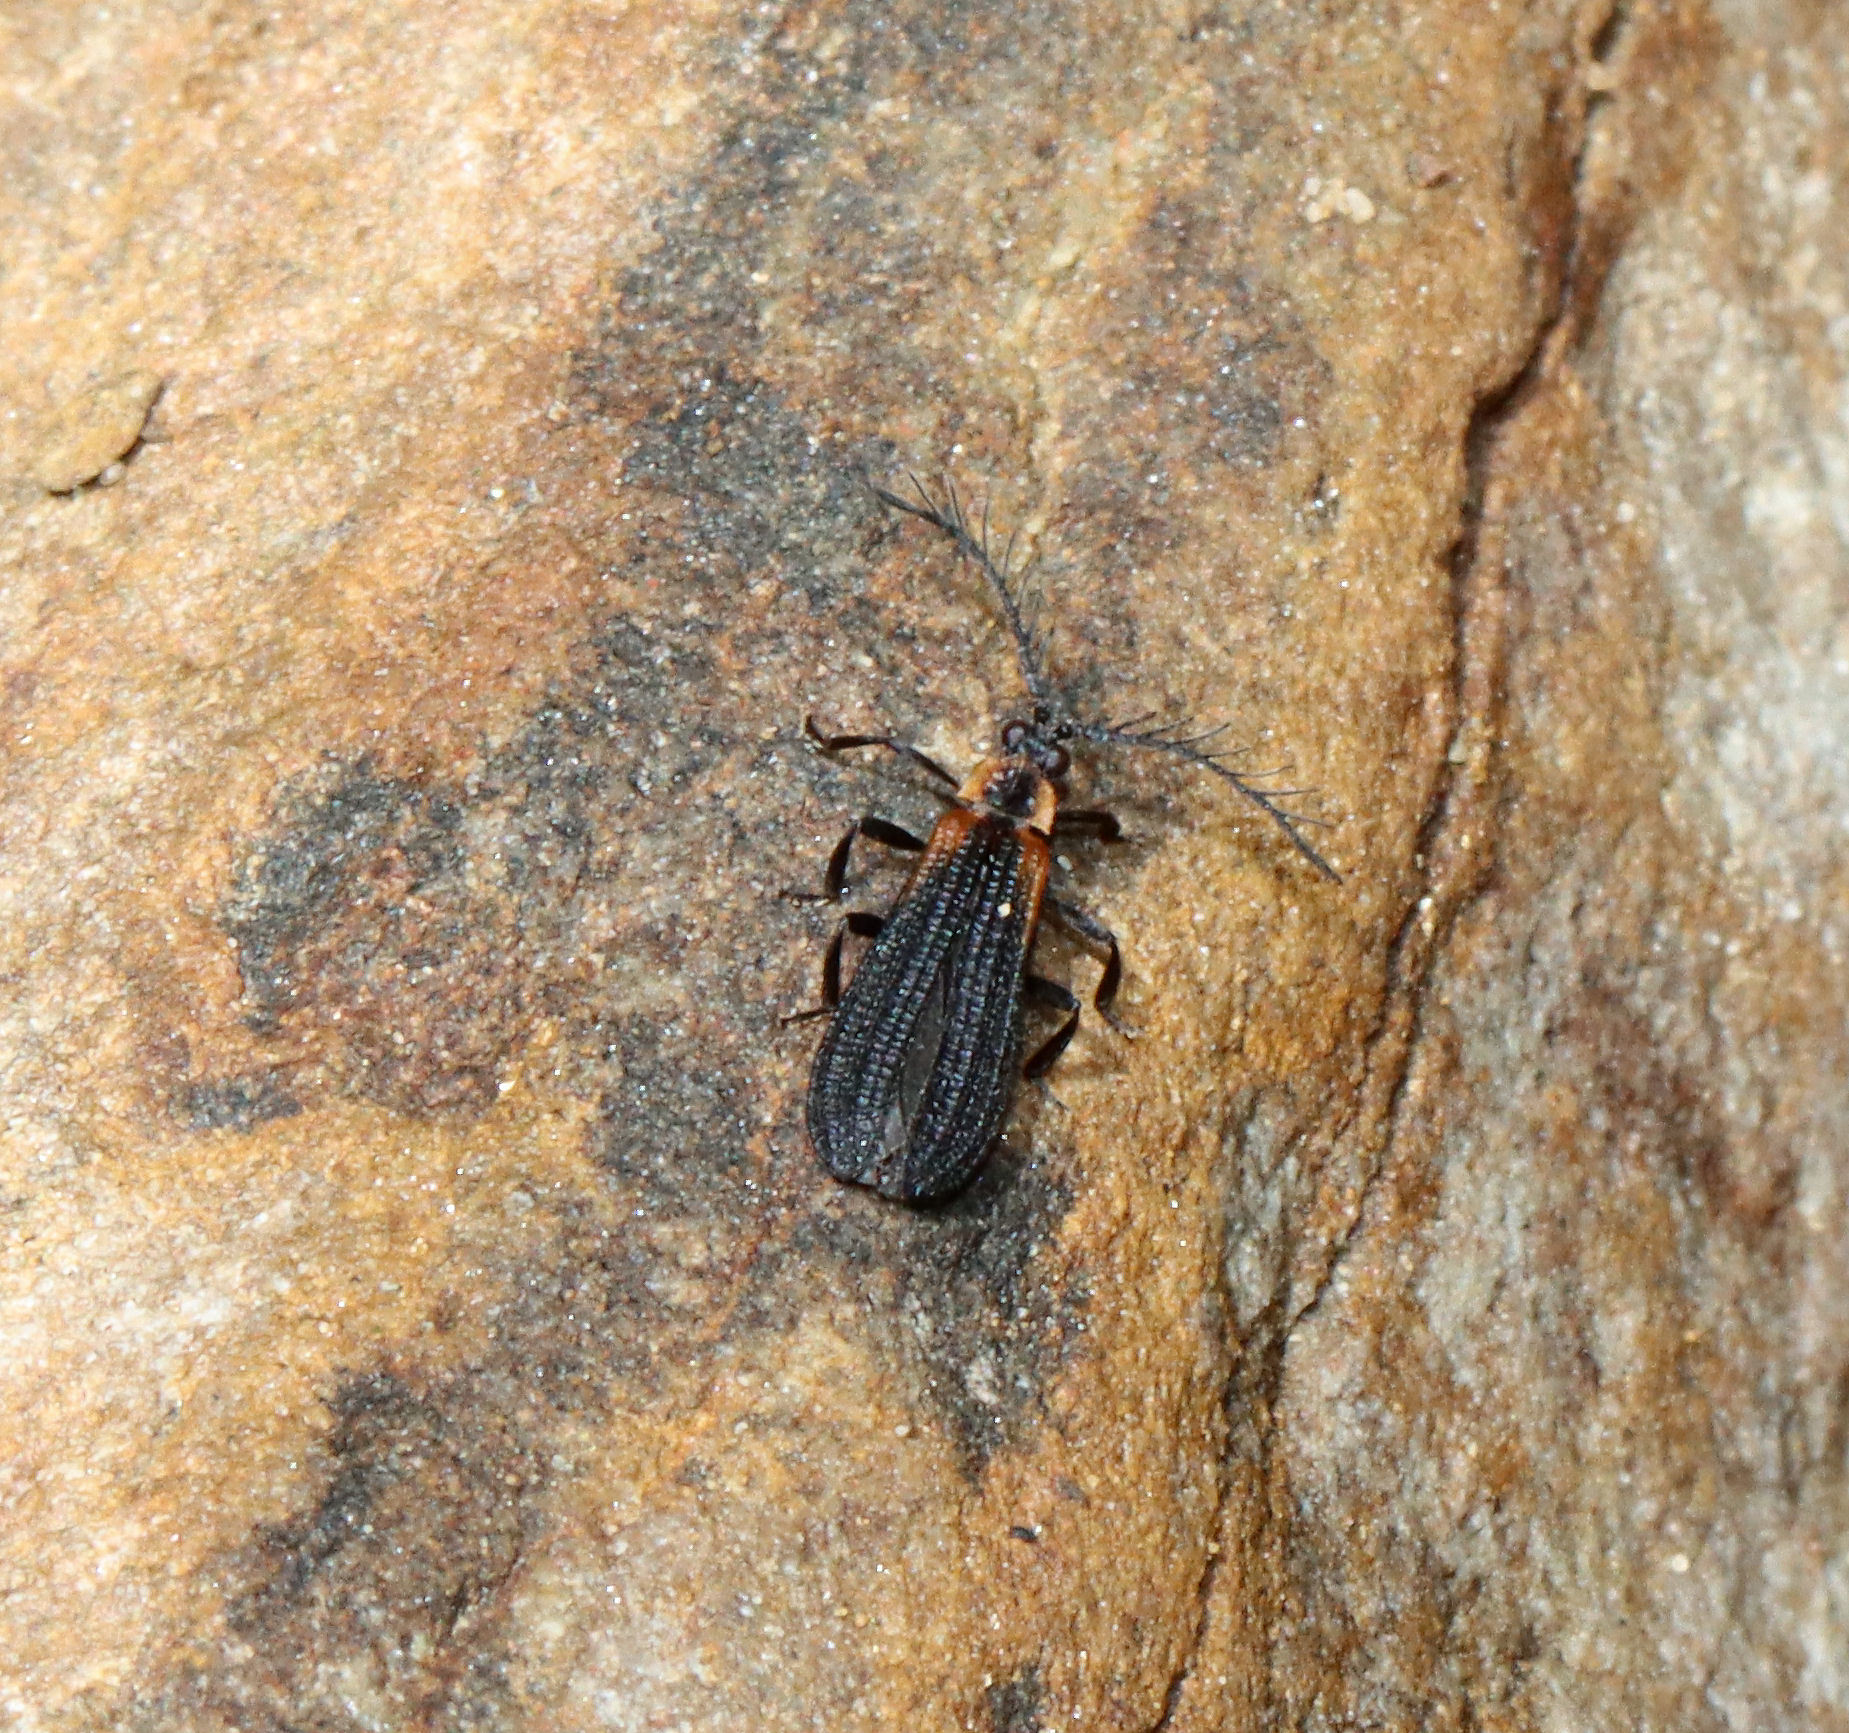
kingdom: Animalia
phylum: Arthropoda
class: Insecta
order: Coleoptera
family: Lycidae
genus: Leptoceletes
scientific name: Leptoceletes basalis
